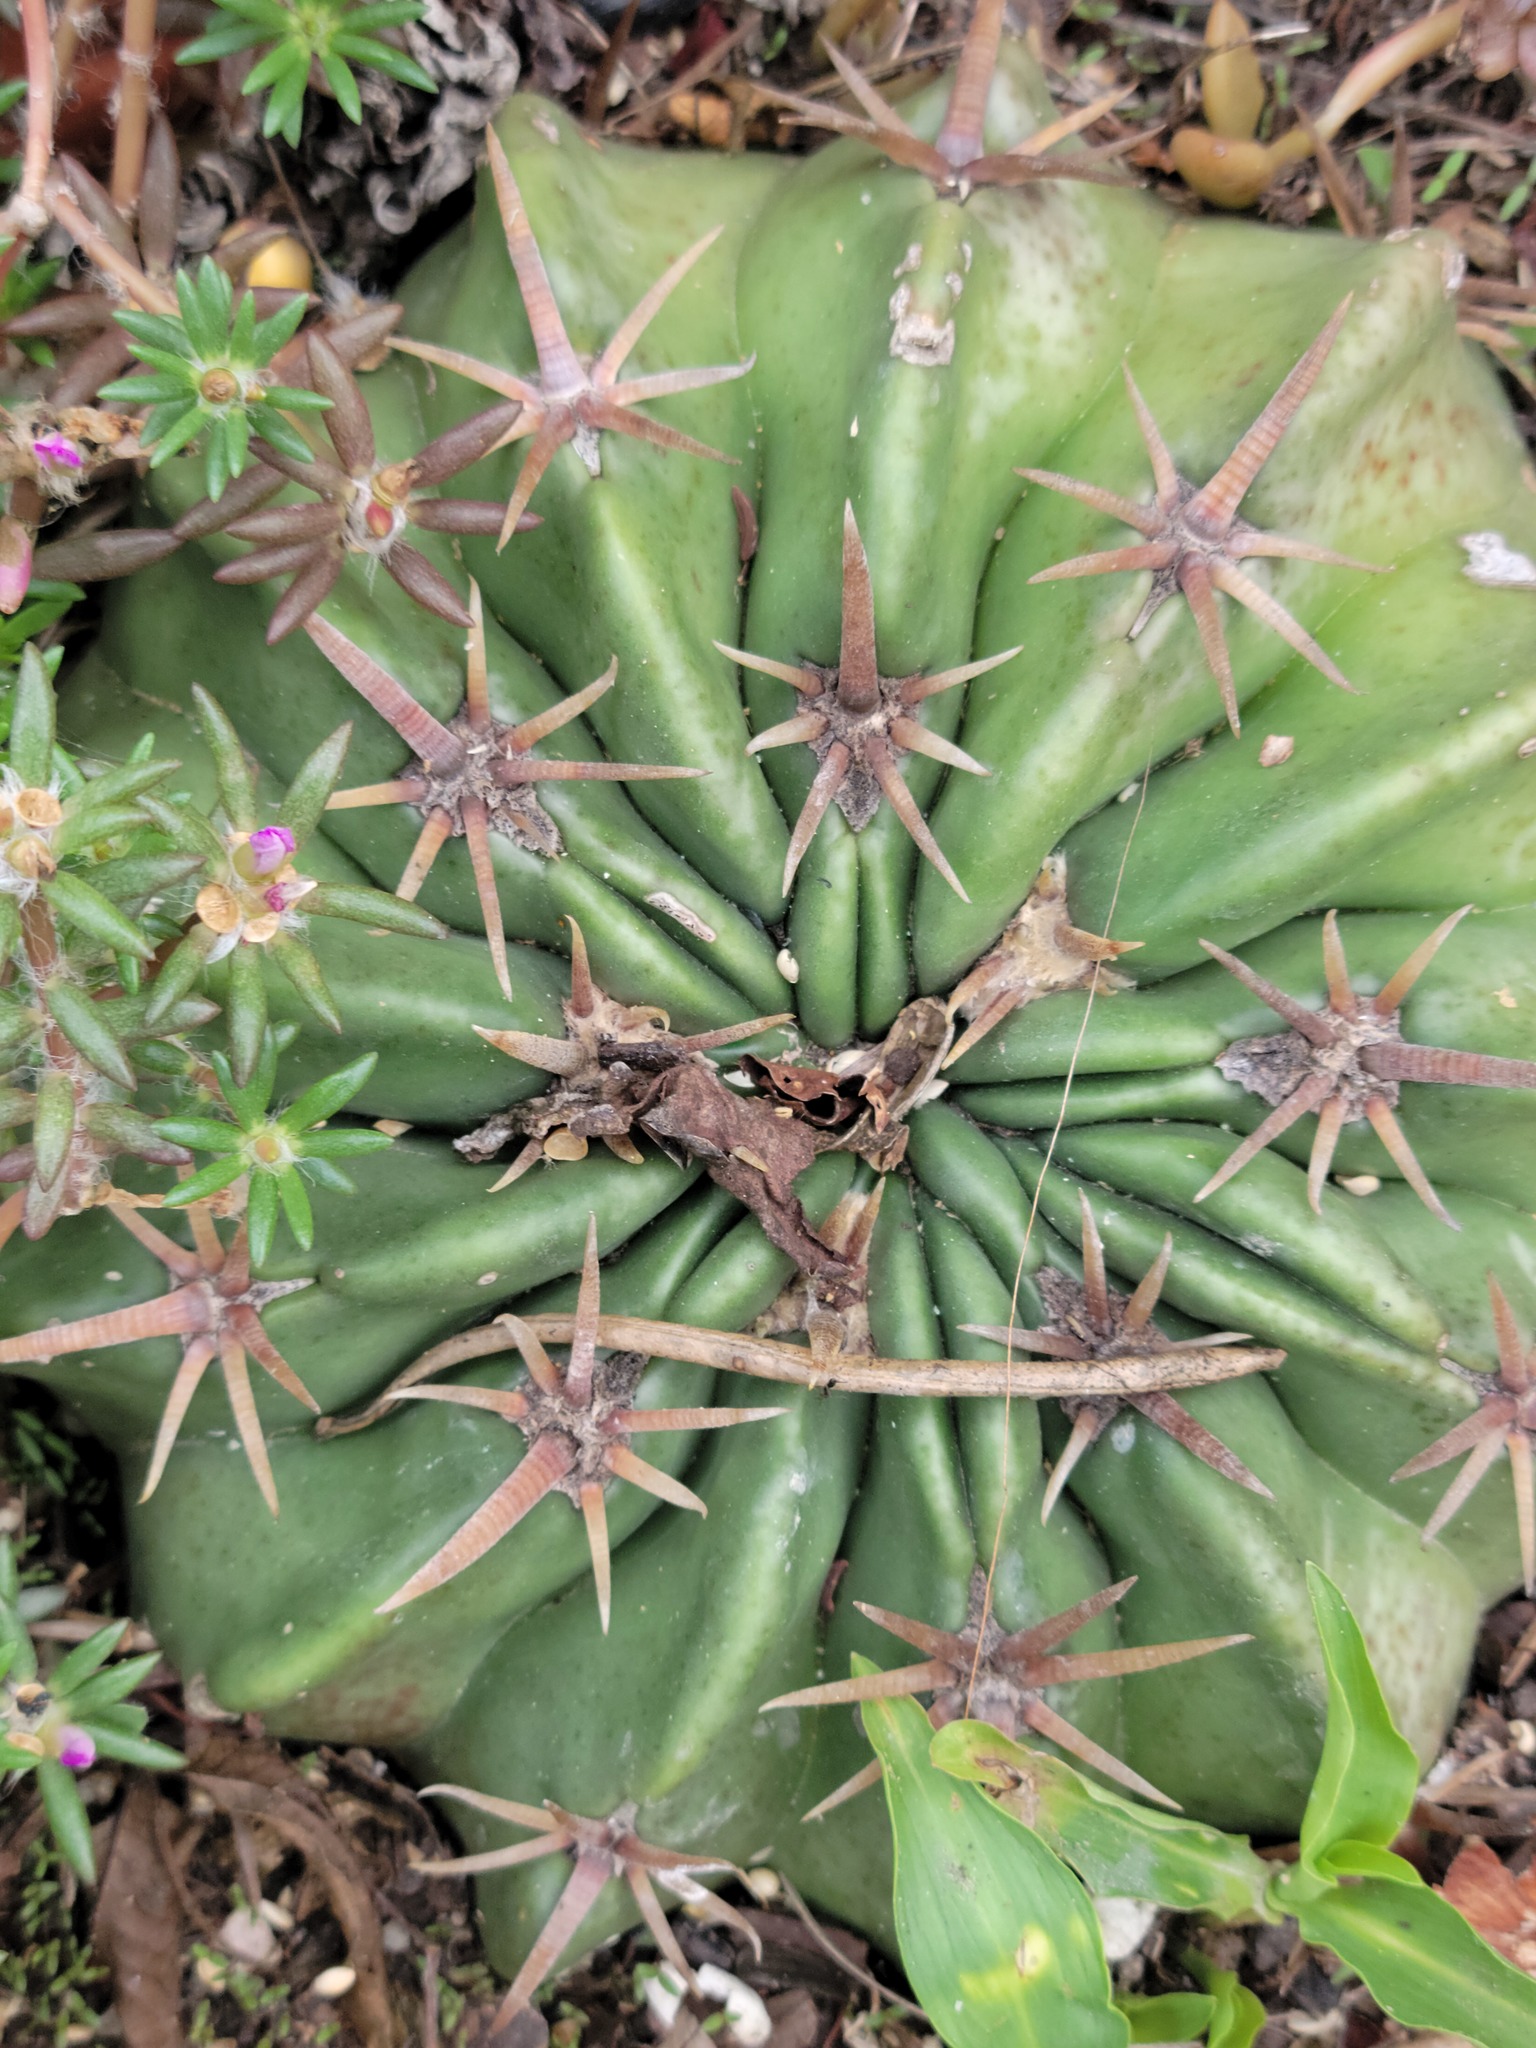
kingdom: Plantae
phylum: Tracheophyta
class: Magnoliopsida
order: Caryophyllales
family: Cactaceae
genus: Echinocactus
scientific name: Echinocactus texensis
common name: Devil's pincushion
